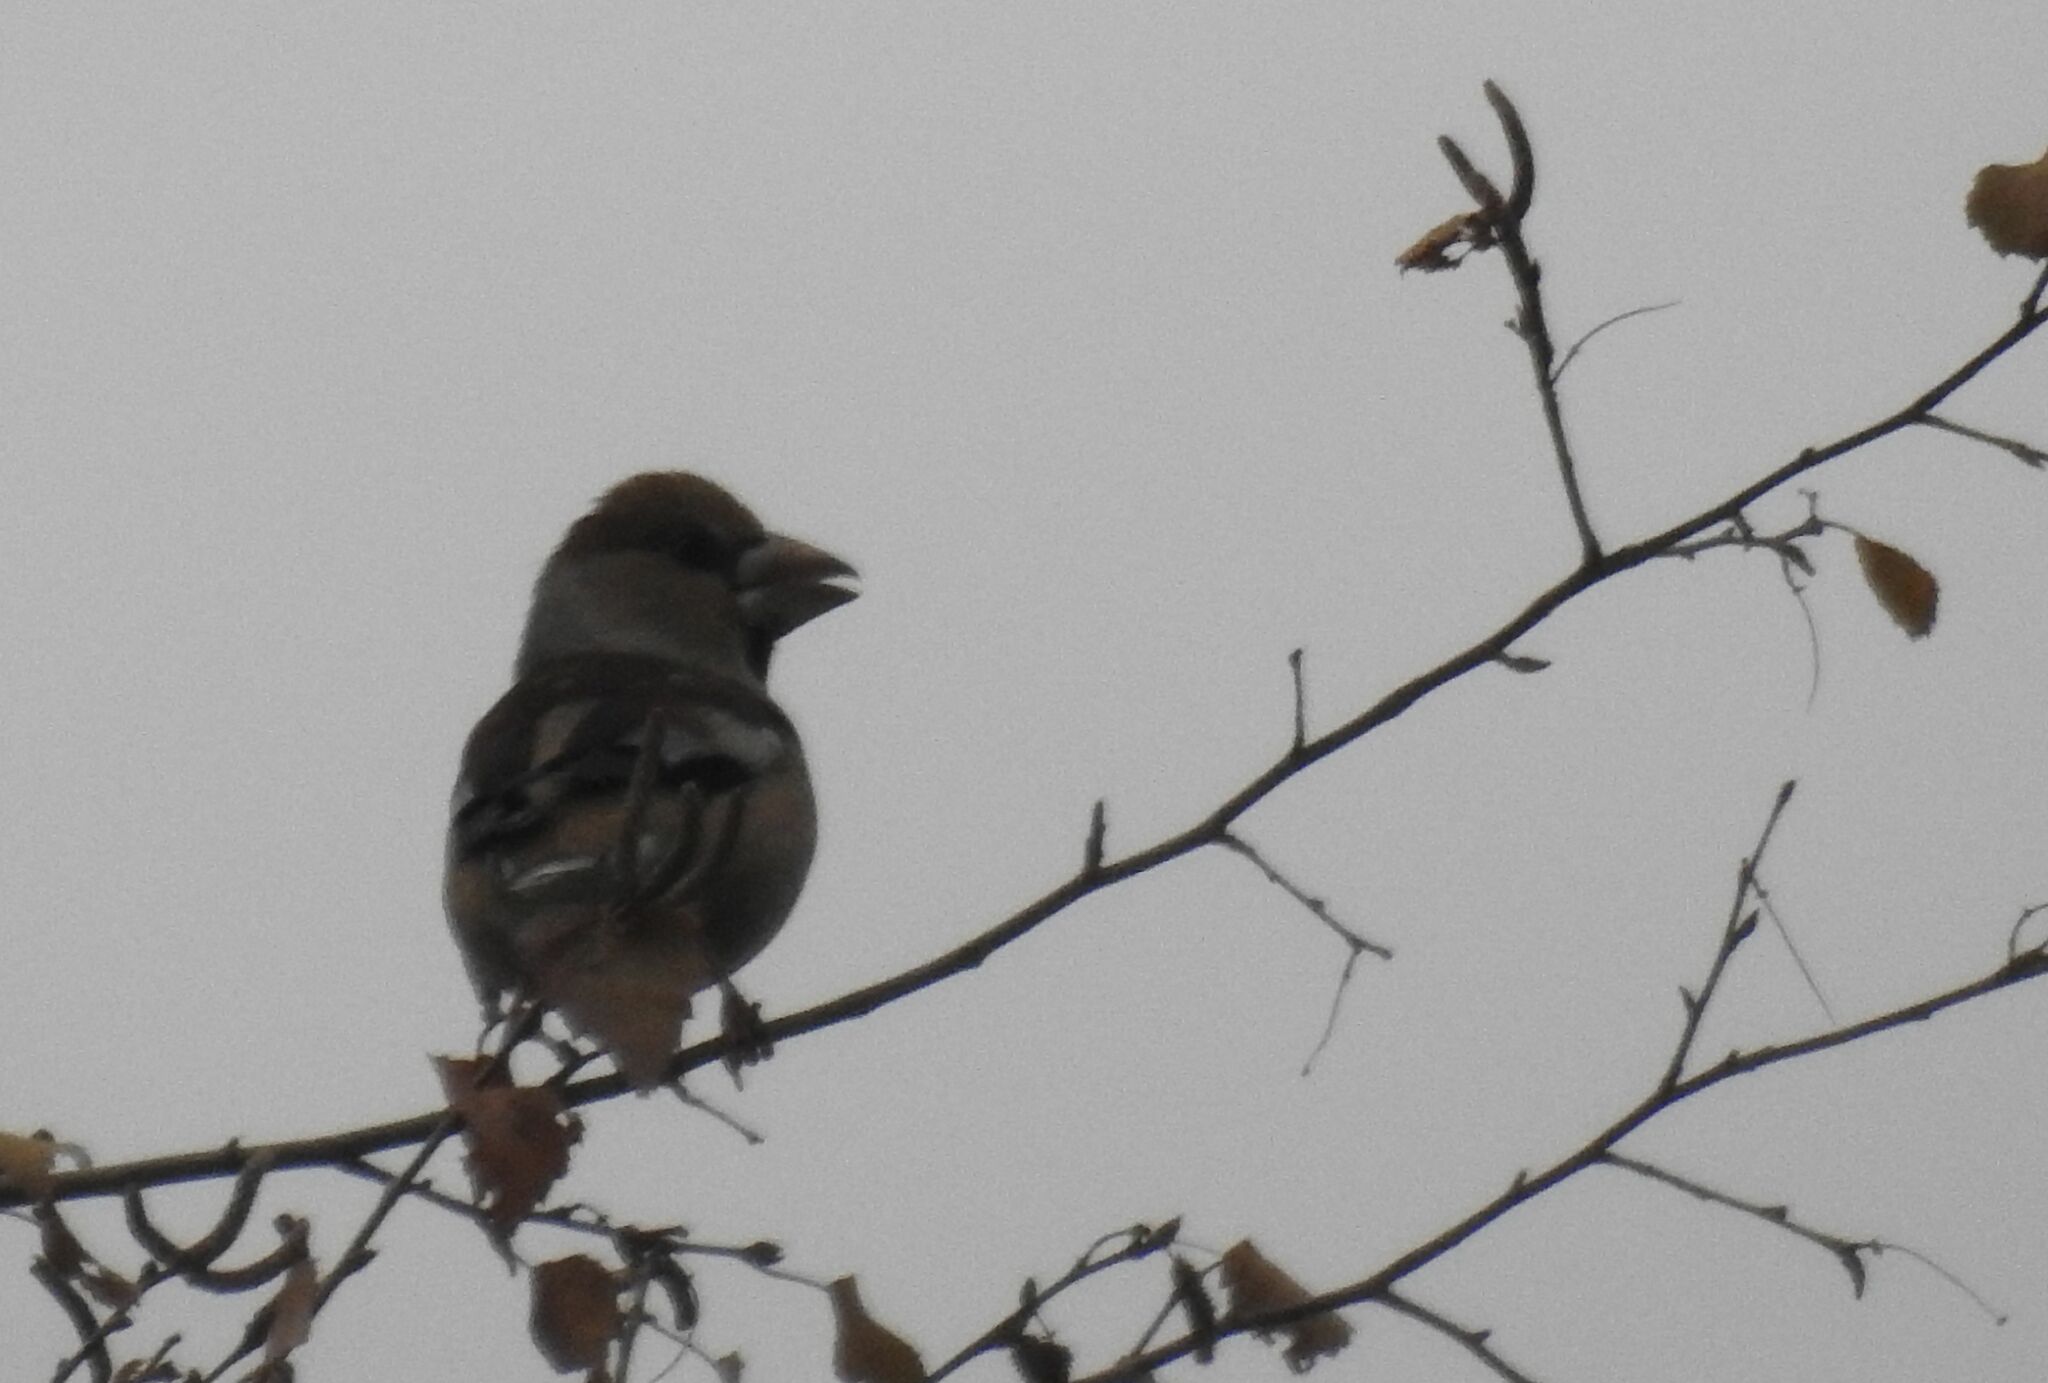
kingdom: Animalia
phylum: Chordata
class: Aves
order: Passeriformes
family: Fringillidae
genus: Coccothraustes
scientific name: Coccothraustes coccothraustes
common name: Hawfinch
